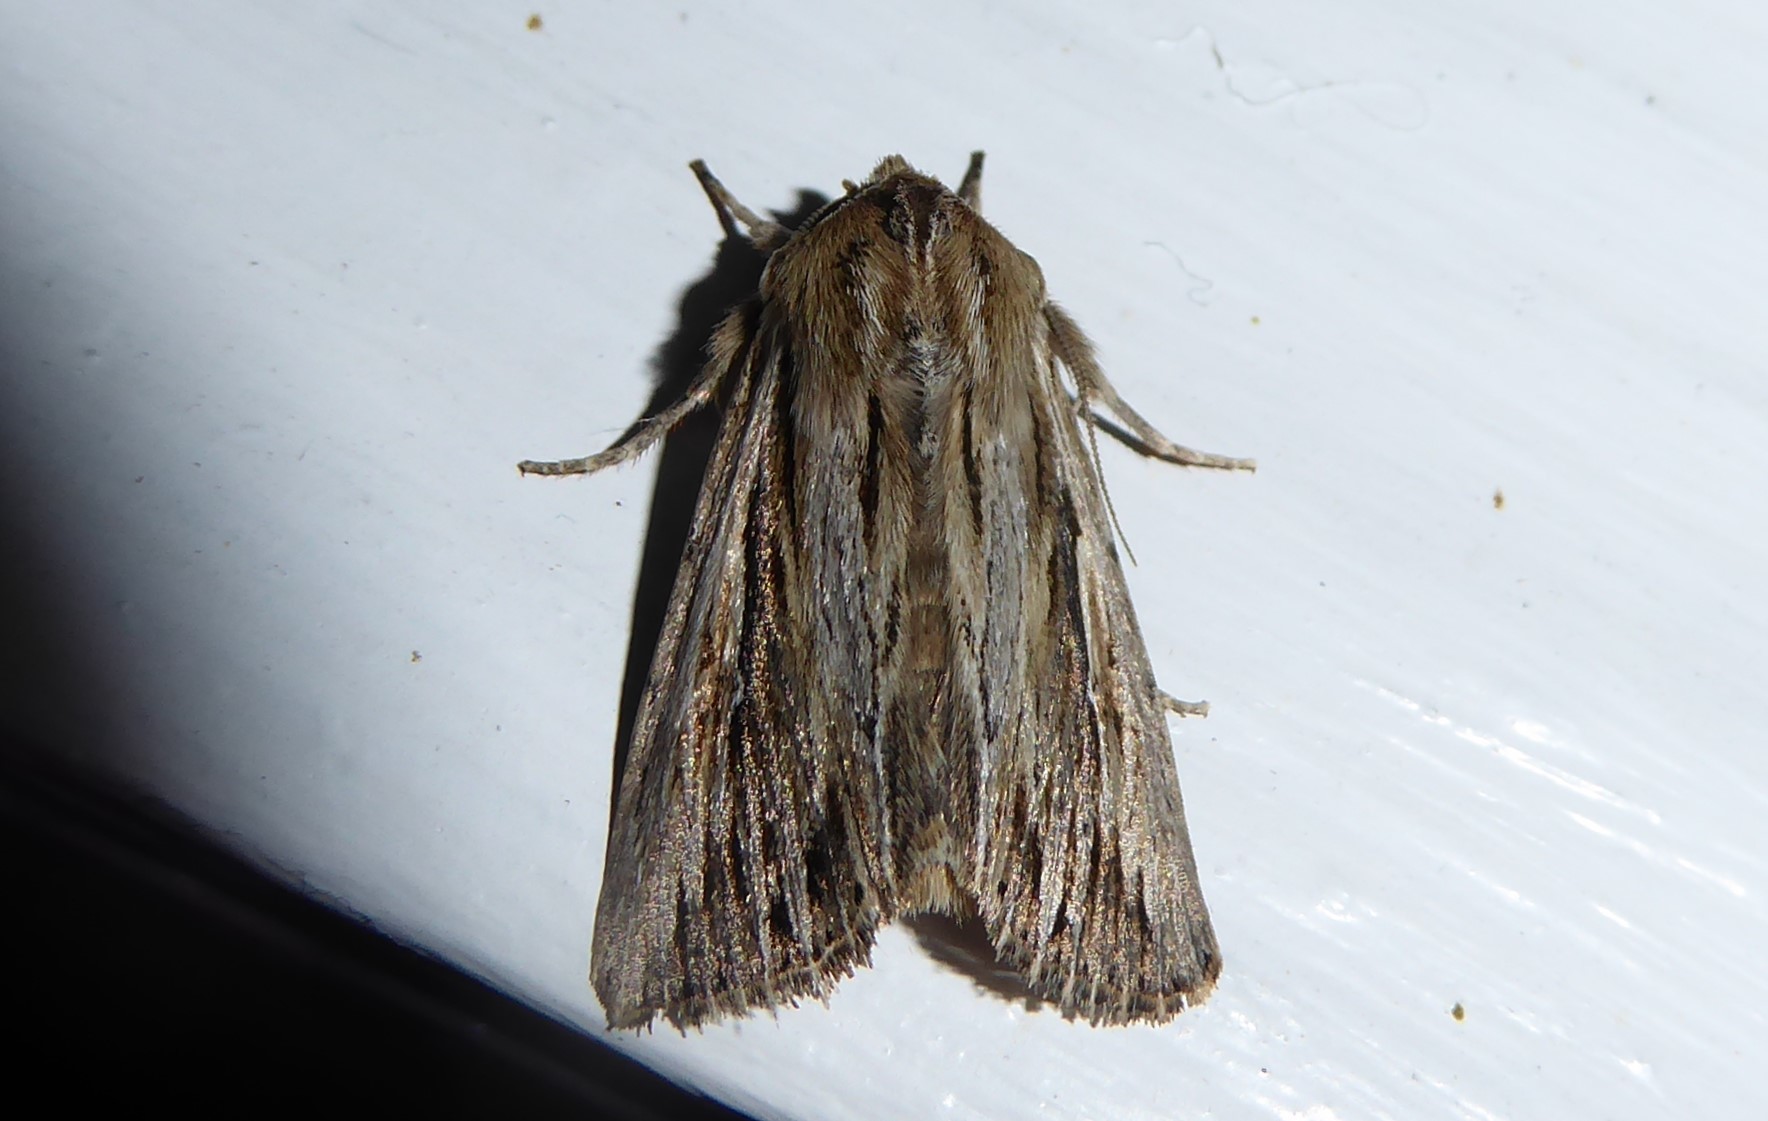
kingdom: Animalia
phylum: Arthropoda
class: Insecta
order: Lepidoptera
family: Noctuidae
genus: Persectania
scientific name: Persectania aversa
